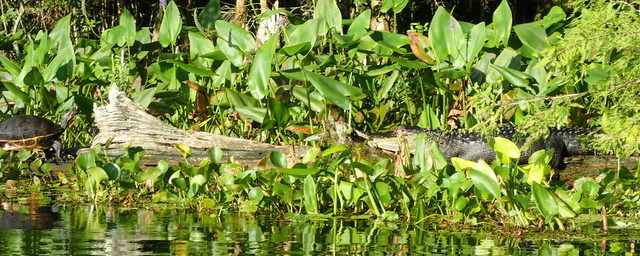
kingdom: Animalia
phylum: Chordata
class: Crocodylia
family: Alligatoridae
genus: Alligator
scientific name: Alligator mississippiensis
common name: American alligator
